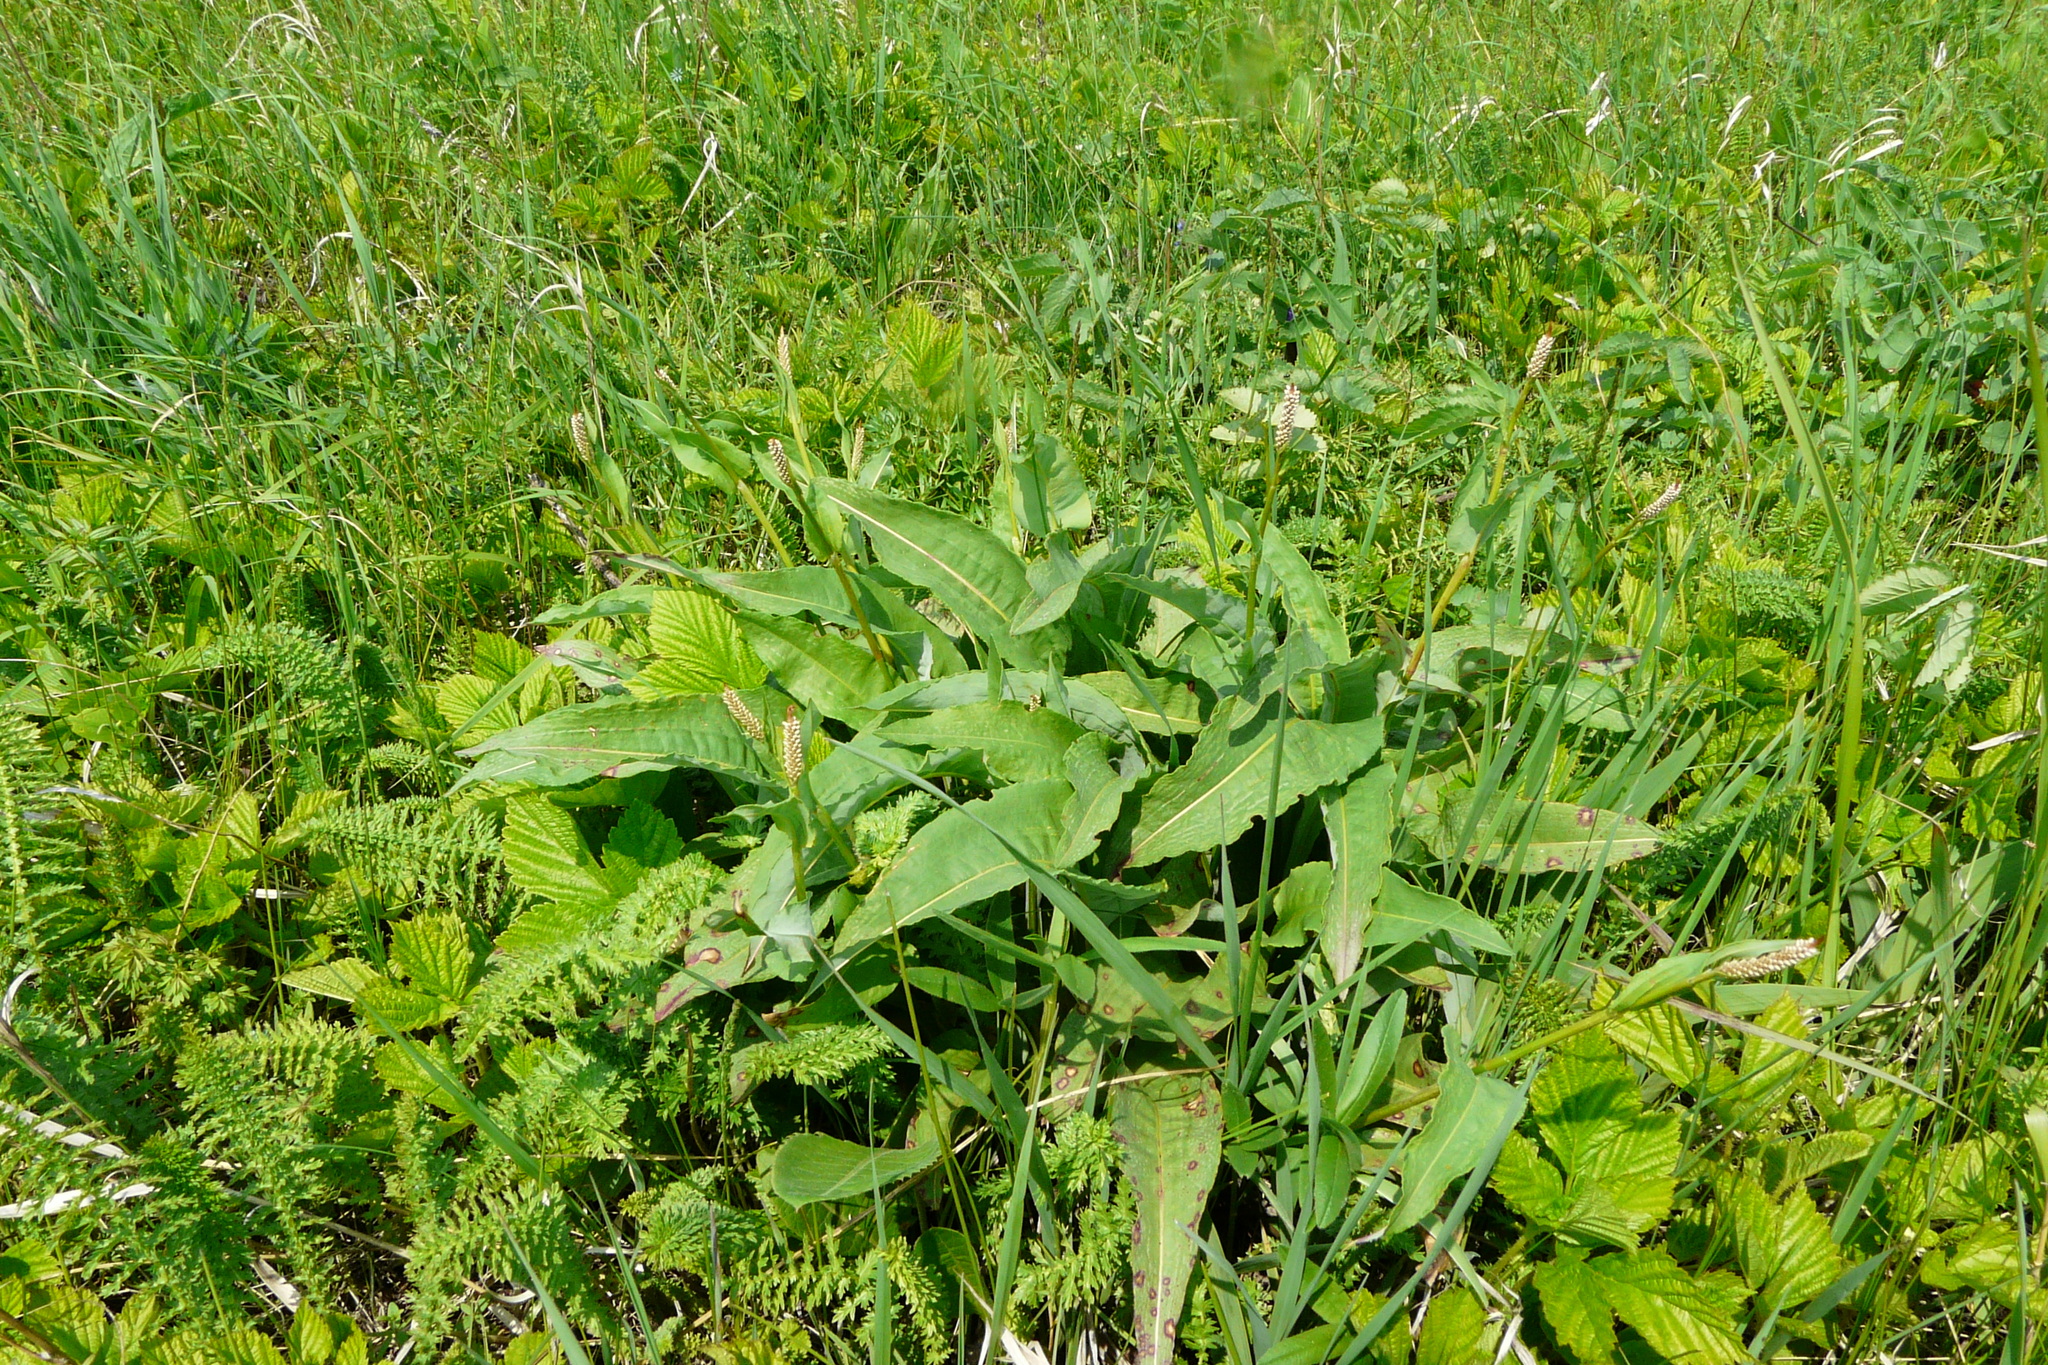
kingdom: Plantae
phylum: Tracheophyta
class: Magnoliopsida
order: Caryophyllales
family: Polygonaceae
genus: Bistorta
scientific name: Bistorta officinalis
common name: Common bistort
